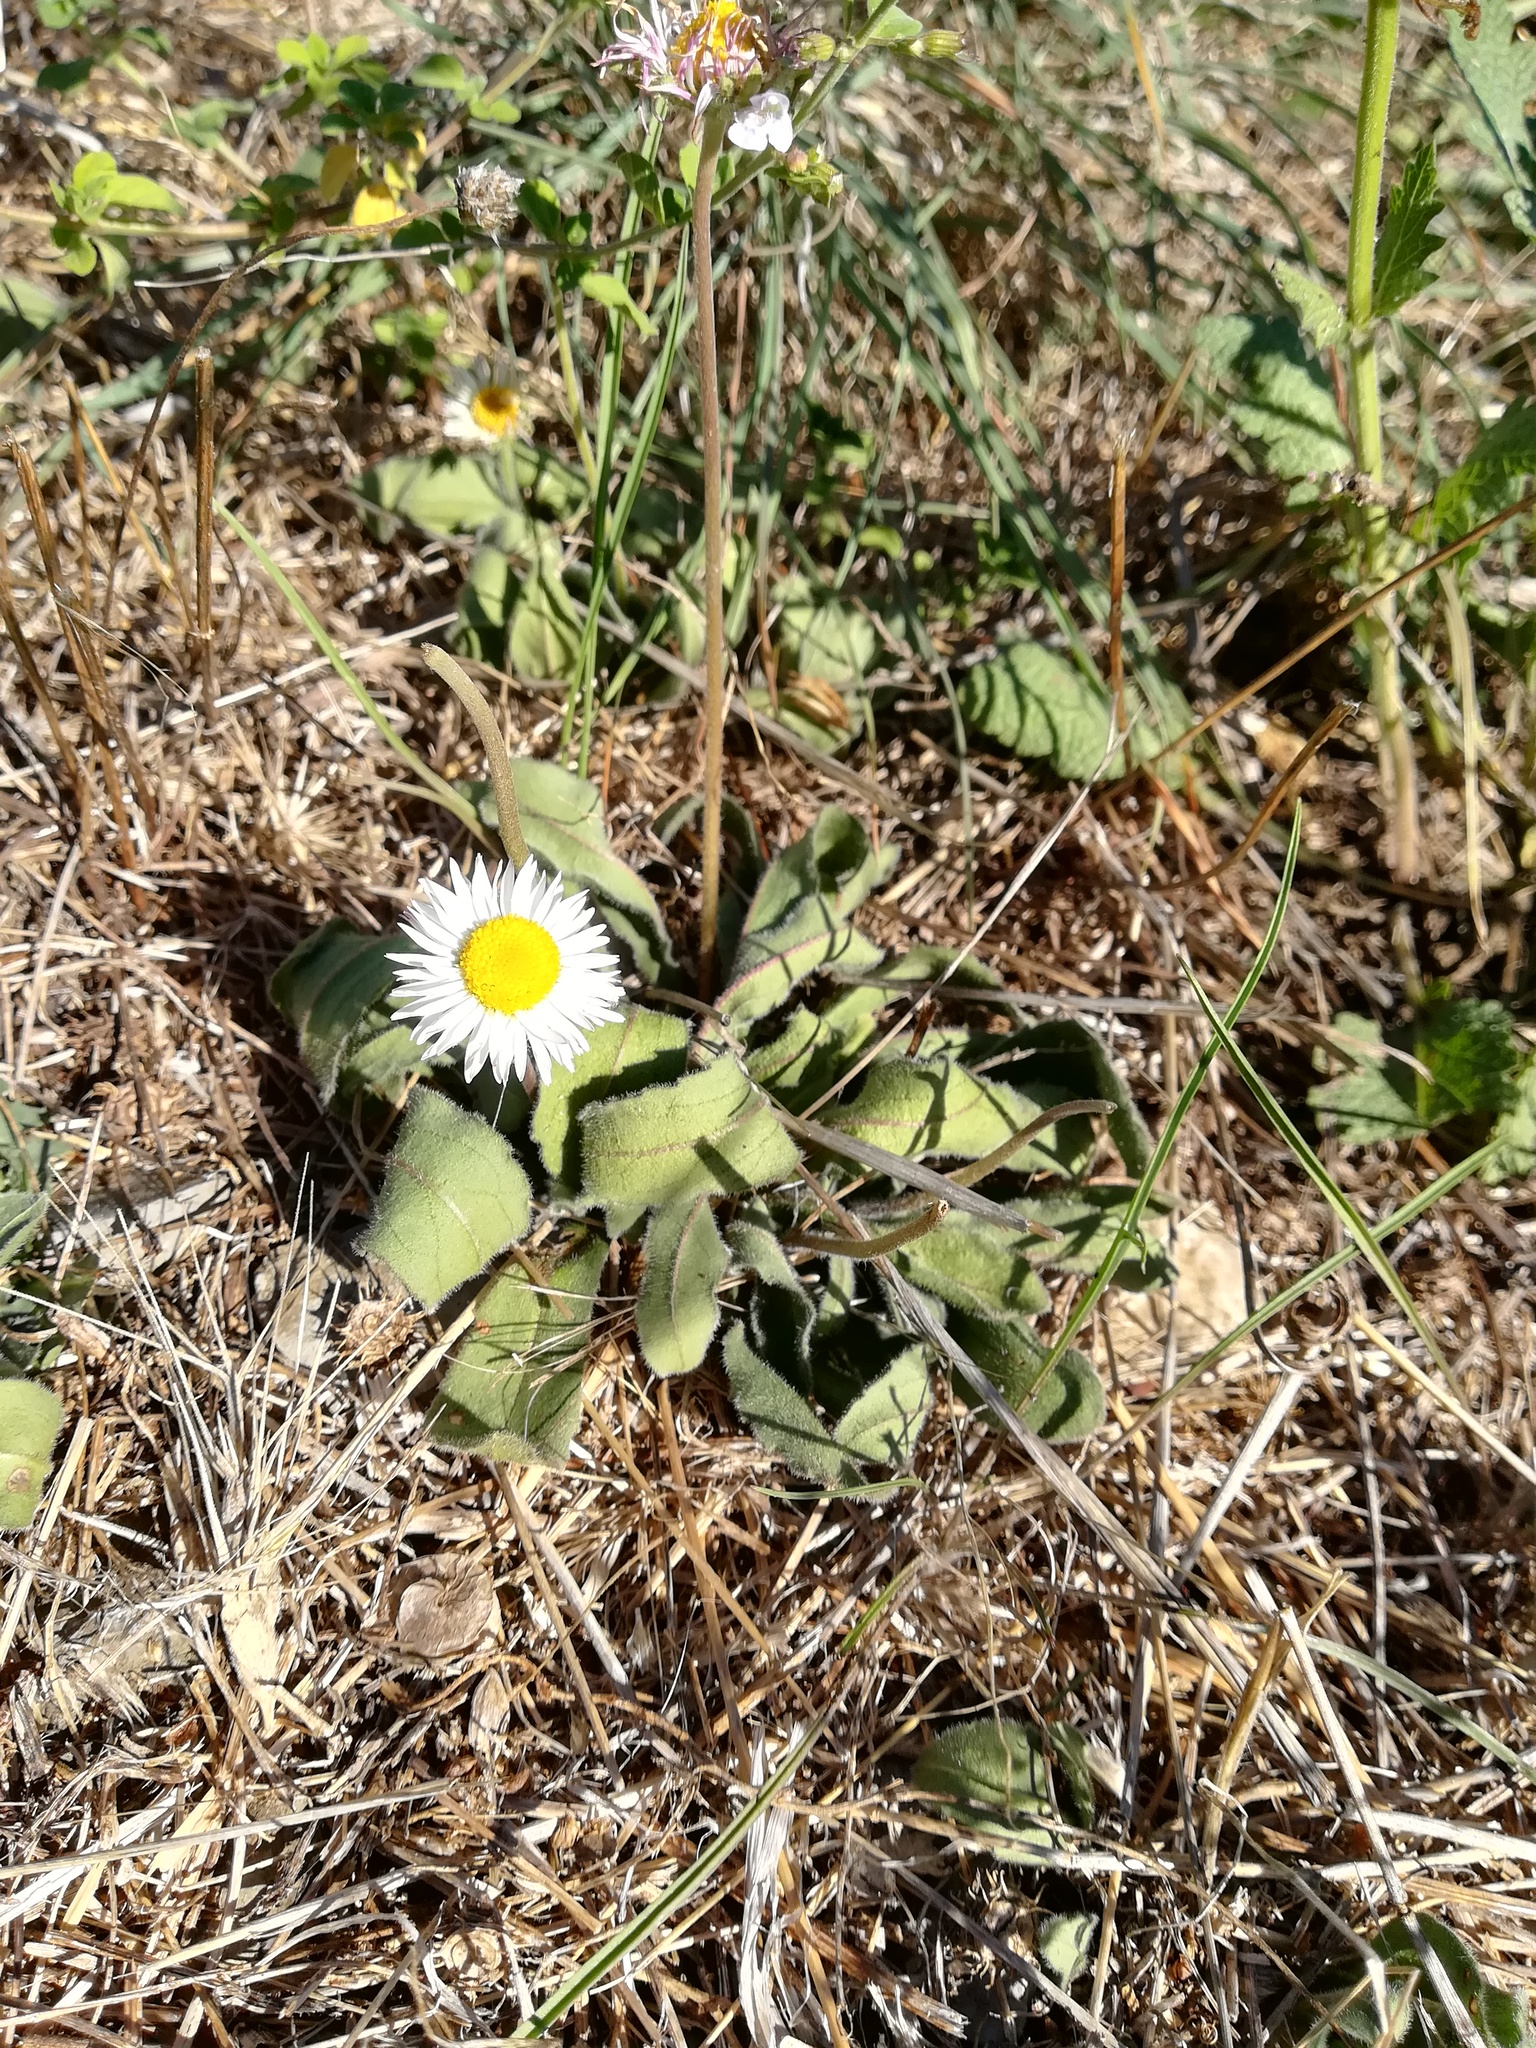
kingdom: Plantae
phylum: Tracheophyta
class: Magnoliopsida
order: Asterales
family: Asteraceae
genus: Bellis
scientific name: Bellis sylvestris
